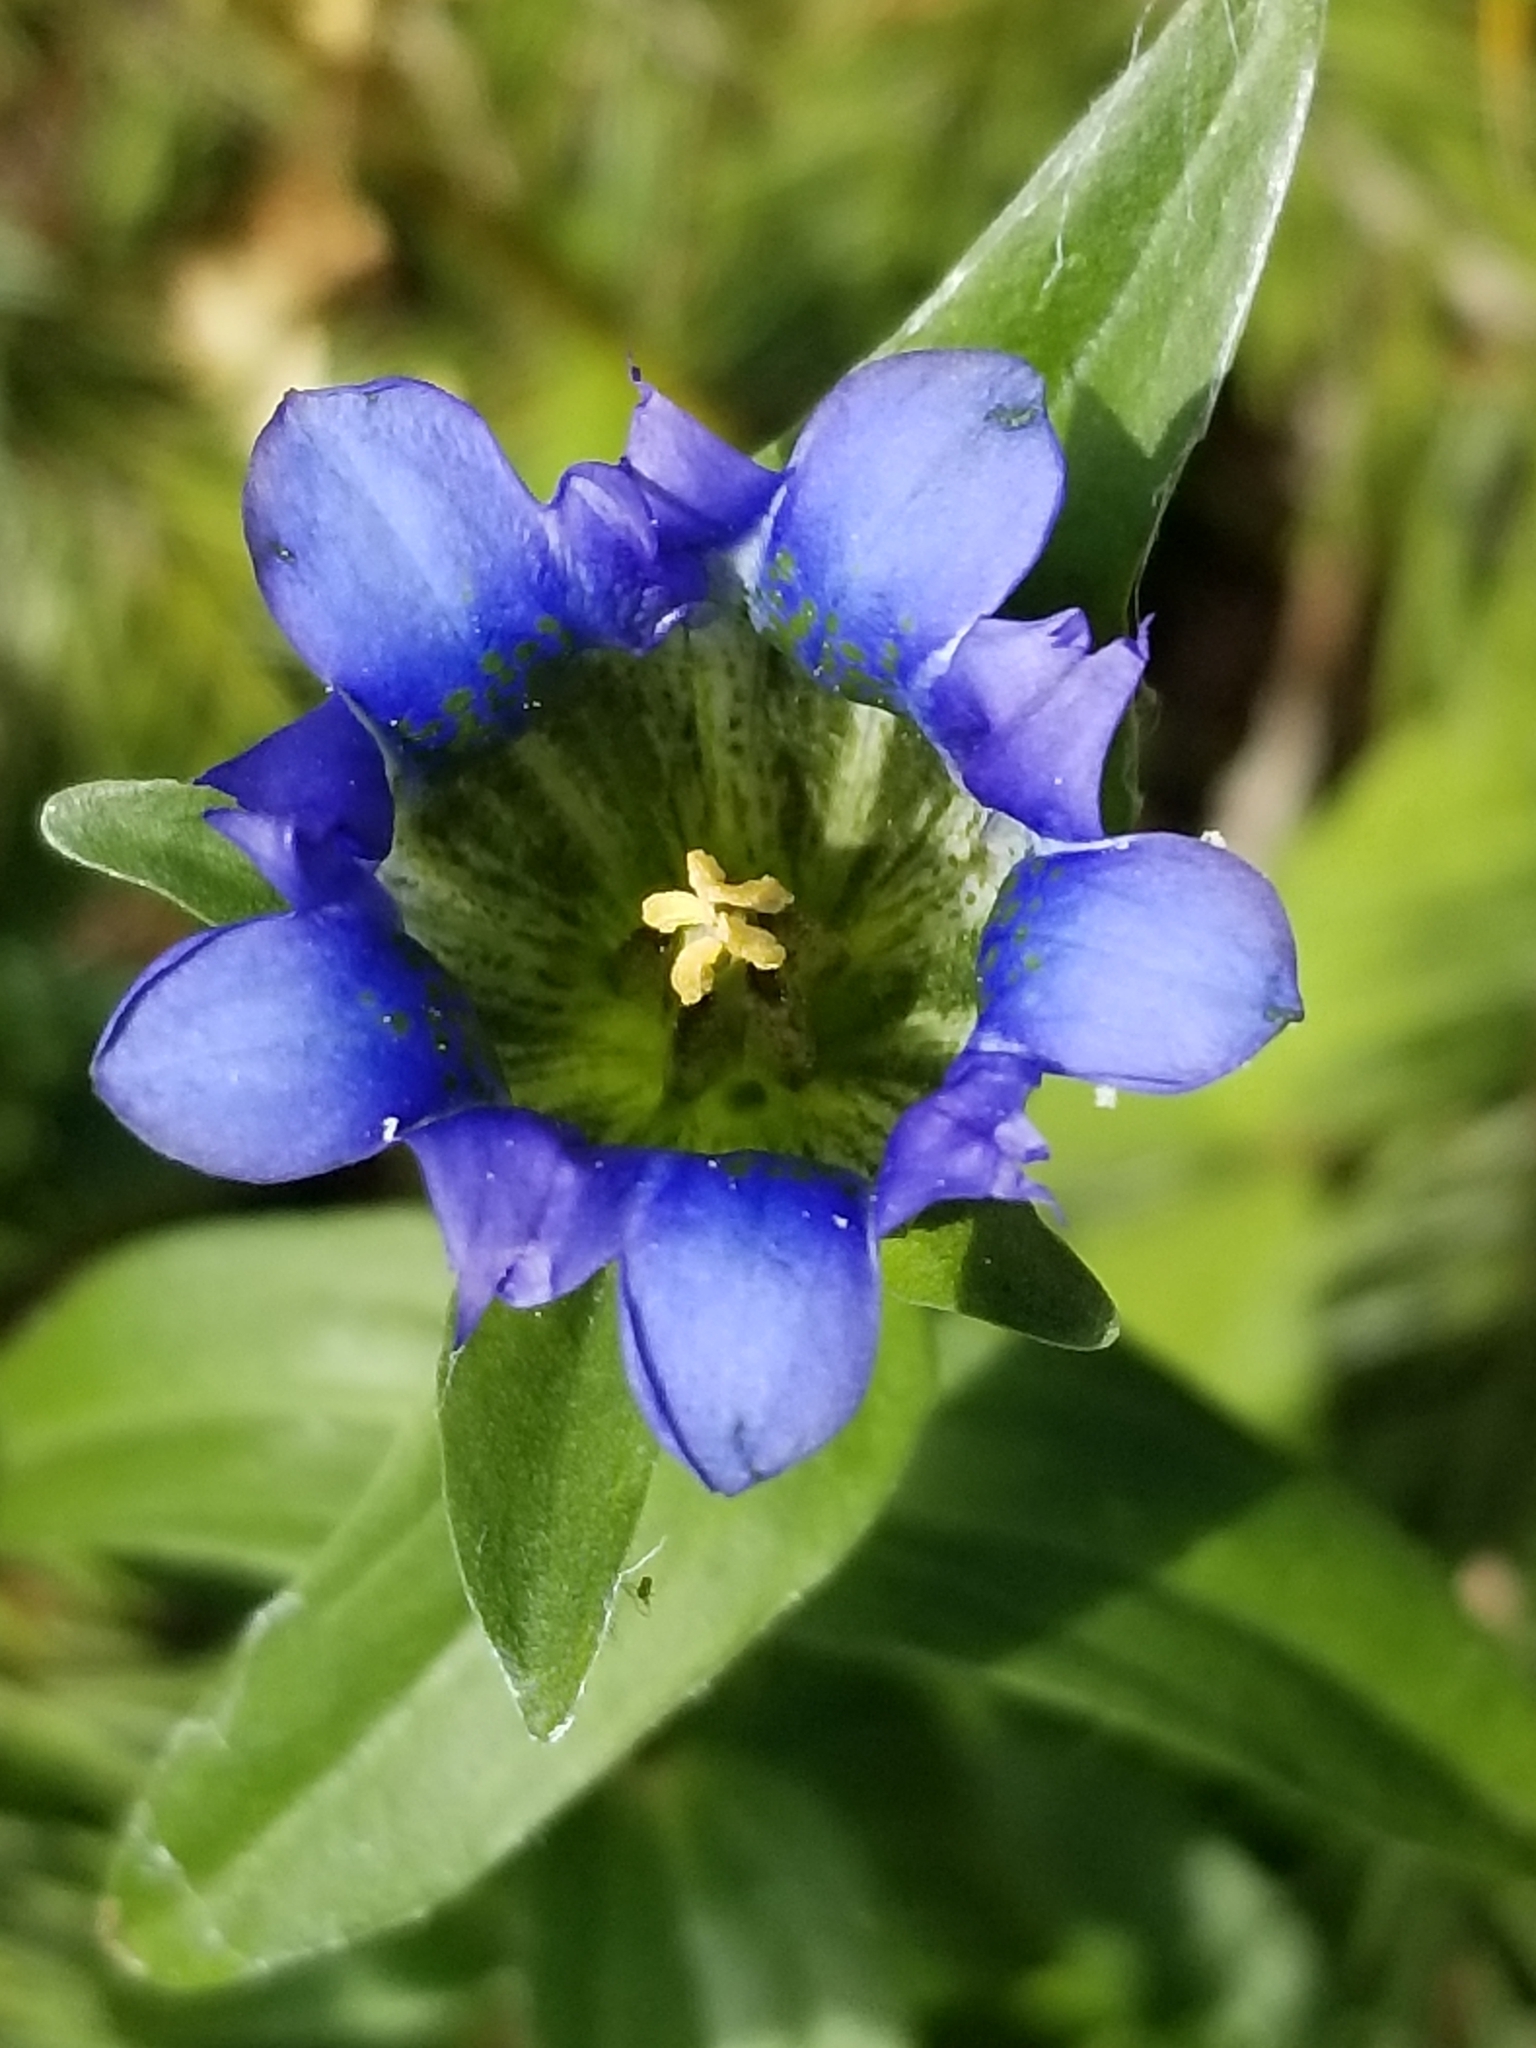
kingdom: Plantae
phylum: Tracheophyta
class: Magnoliopsida
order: Gentianales
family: Gentianaceae
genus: Gentiana
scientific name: Gentiana parryi
